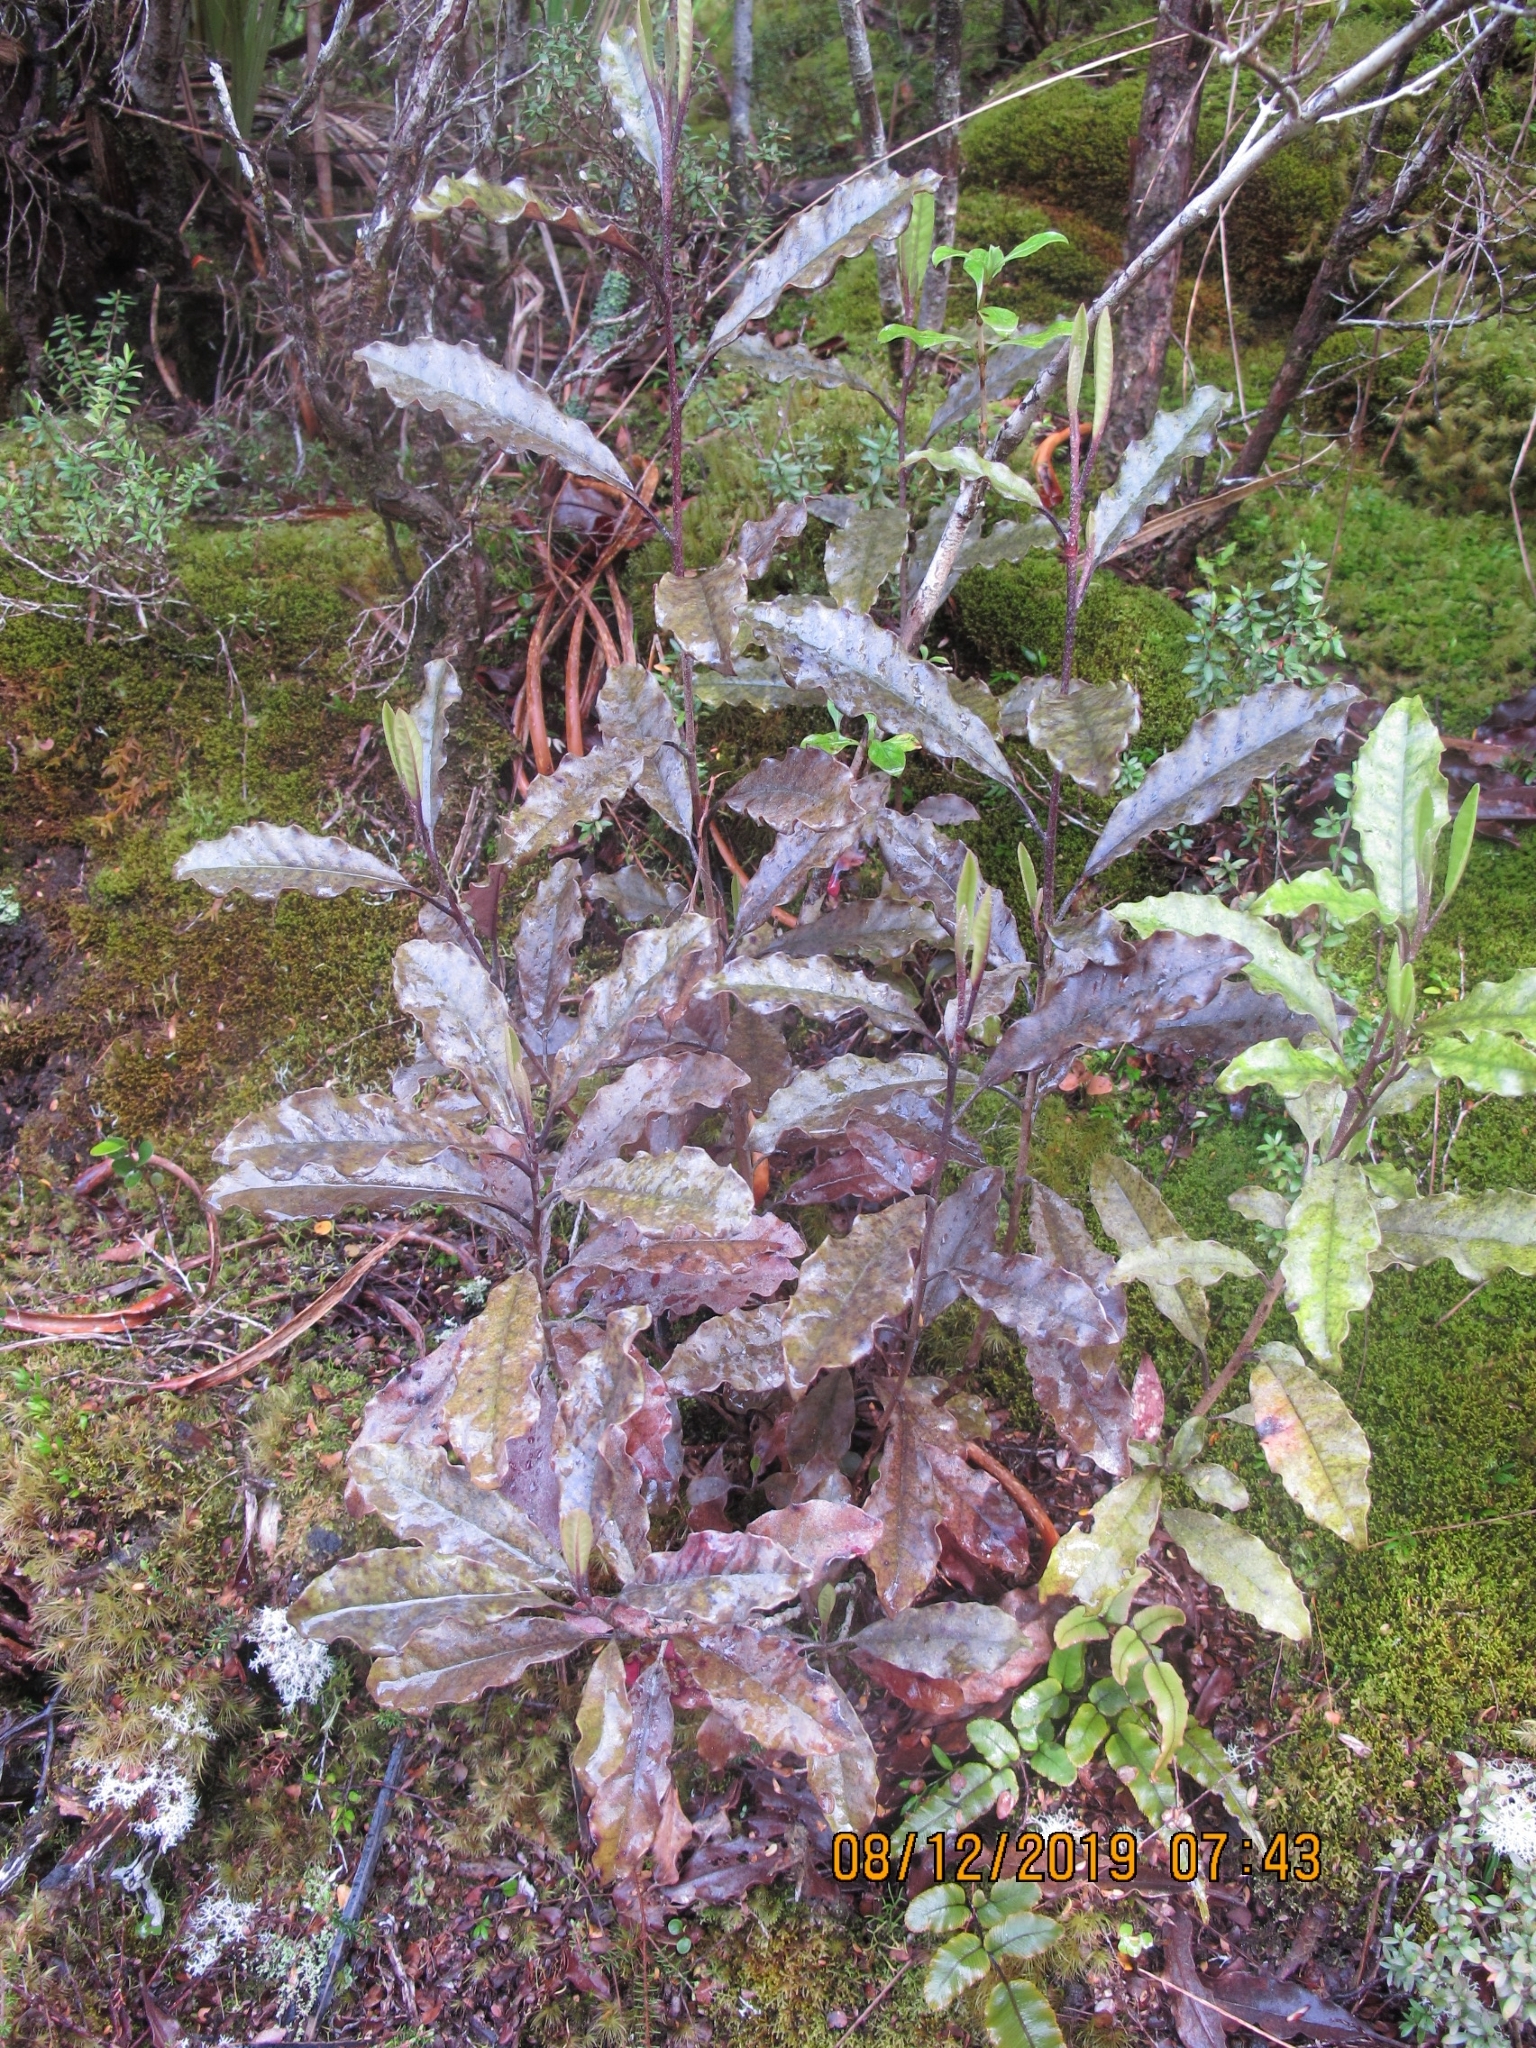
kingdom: Plantae
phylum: Tracheophyta
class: Magnoliopsida
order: Paracryphiales
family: Paracryphiaceae
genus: Quintinia
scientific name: Quintinia serrata
